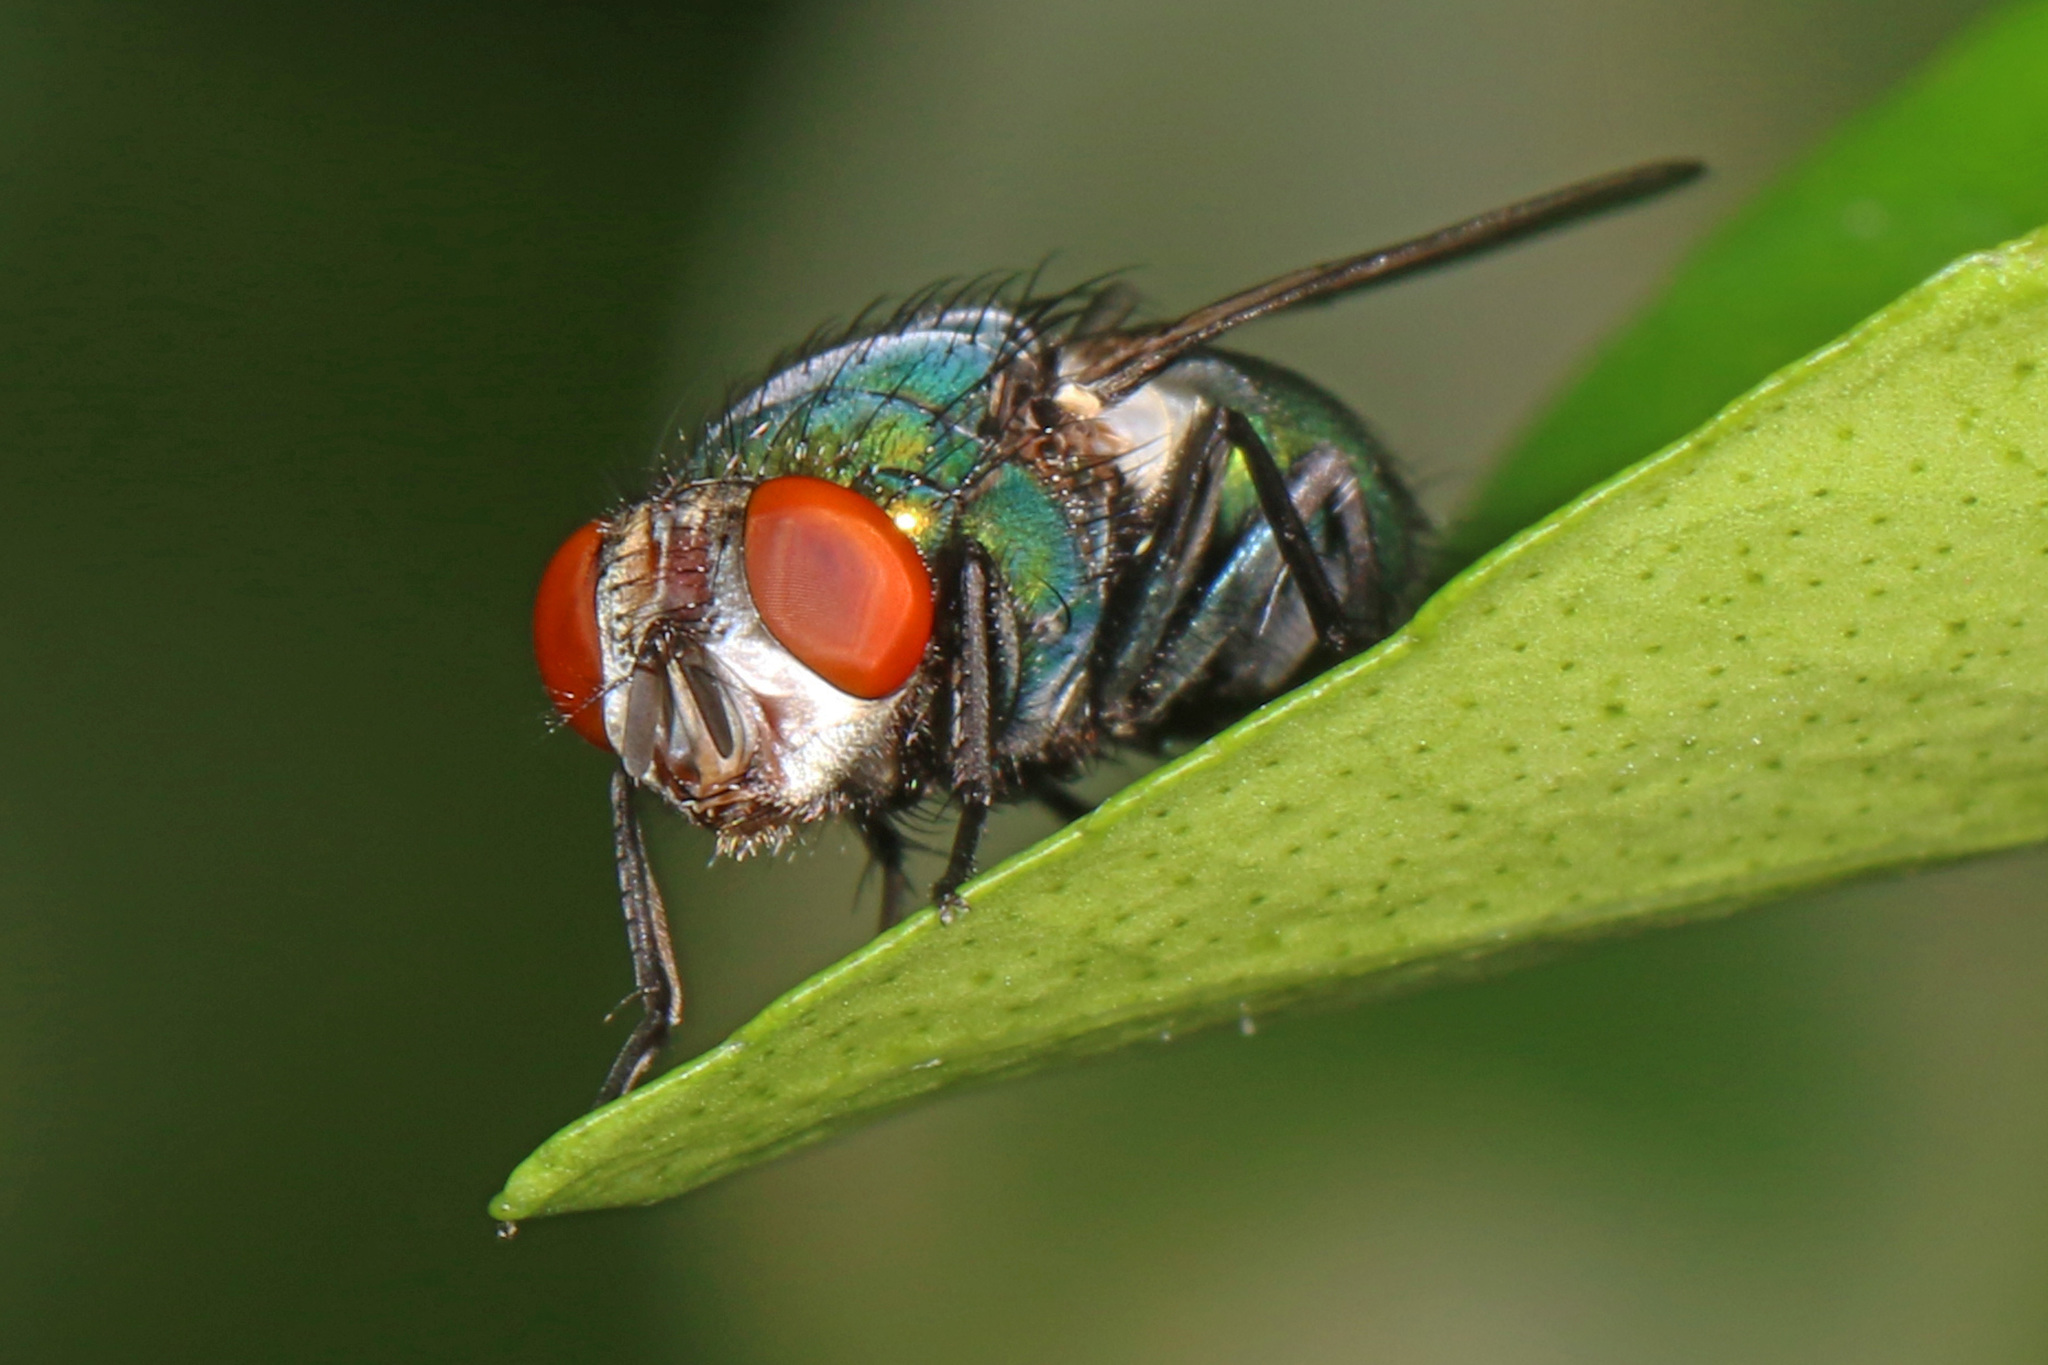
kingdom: Animalia
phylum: Arthropoda
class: Insecta
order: Diptera
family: Calliphoridae
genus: Lucilia
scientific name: Lucilia sericata
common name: Blow fly
